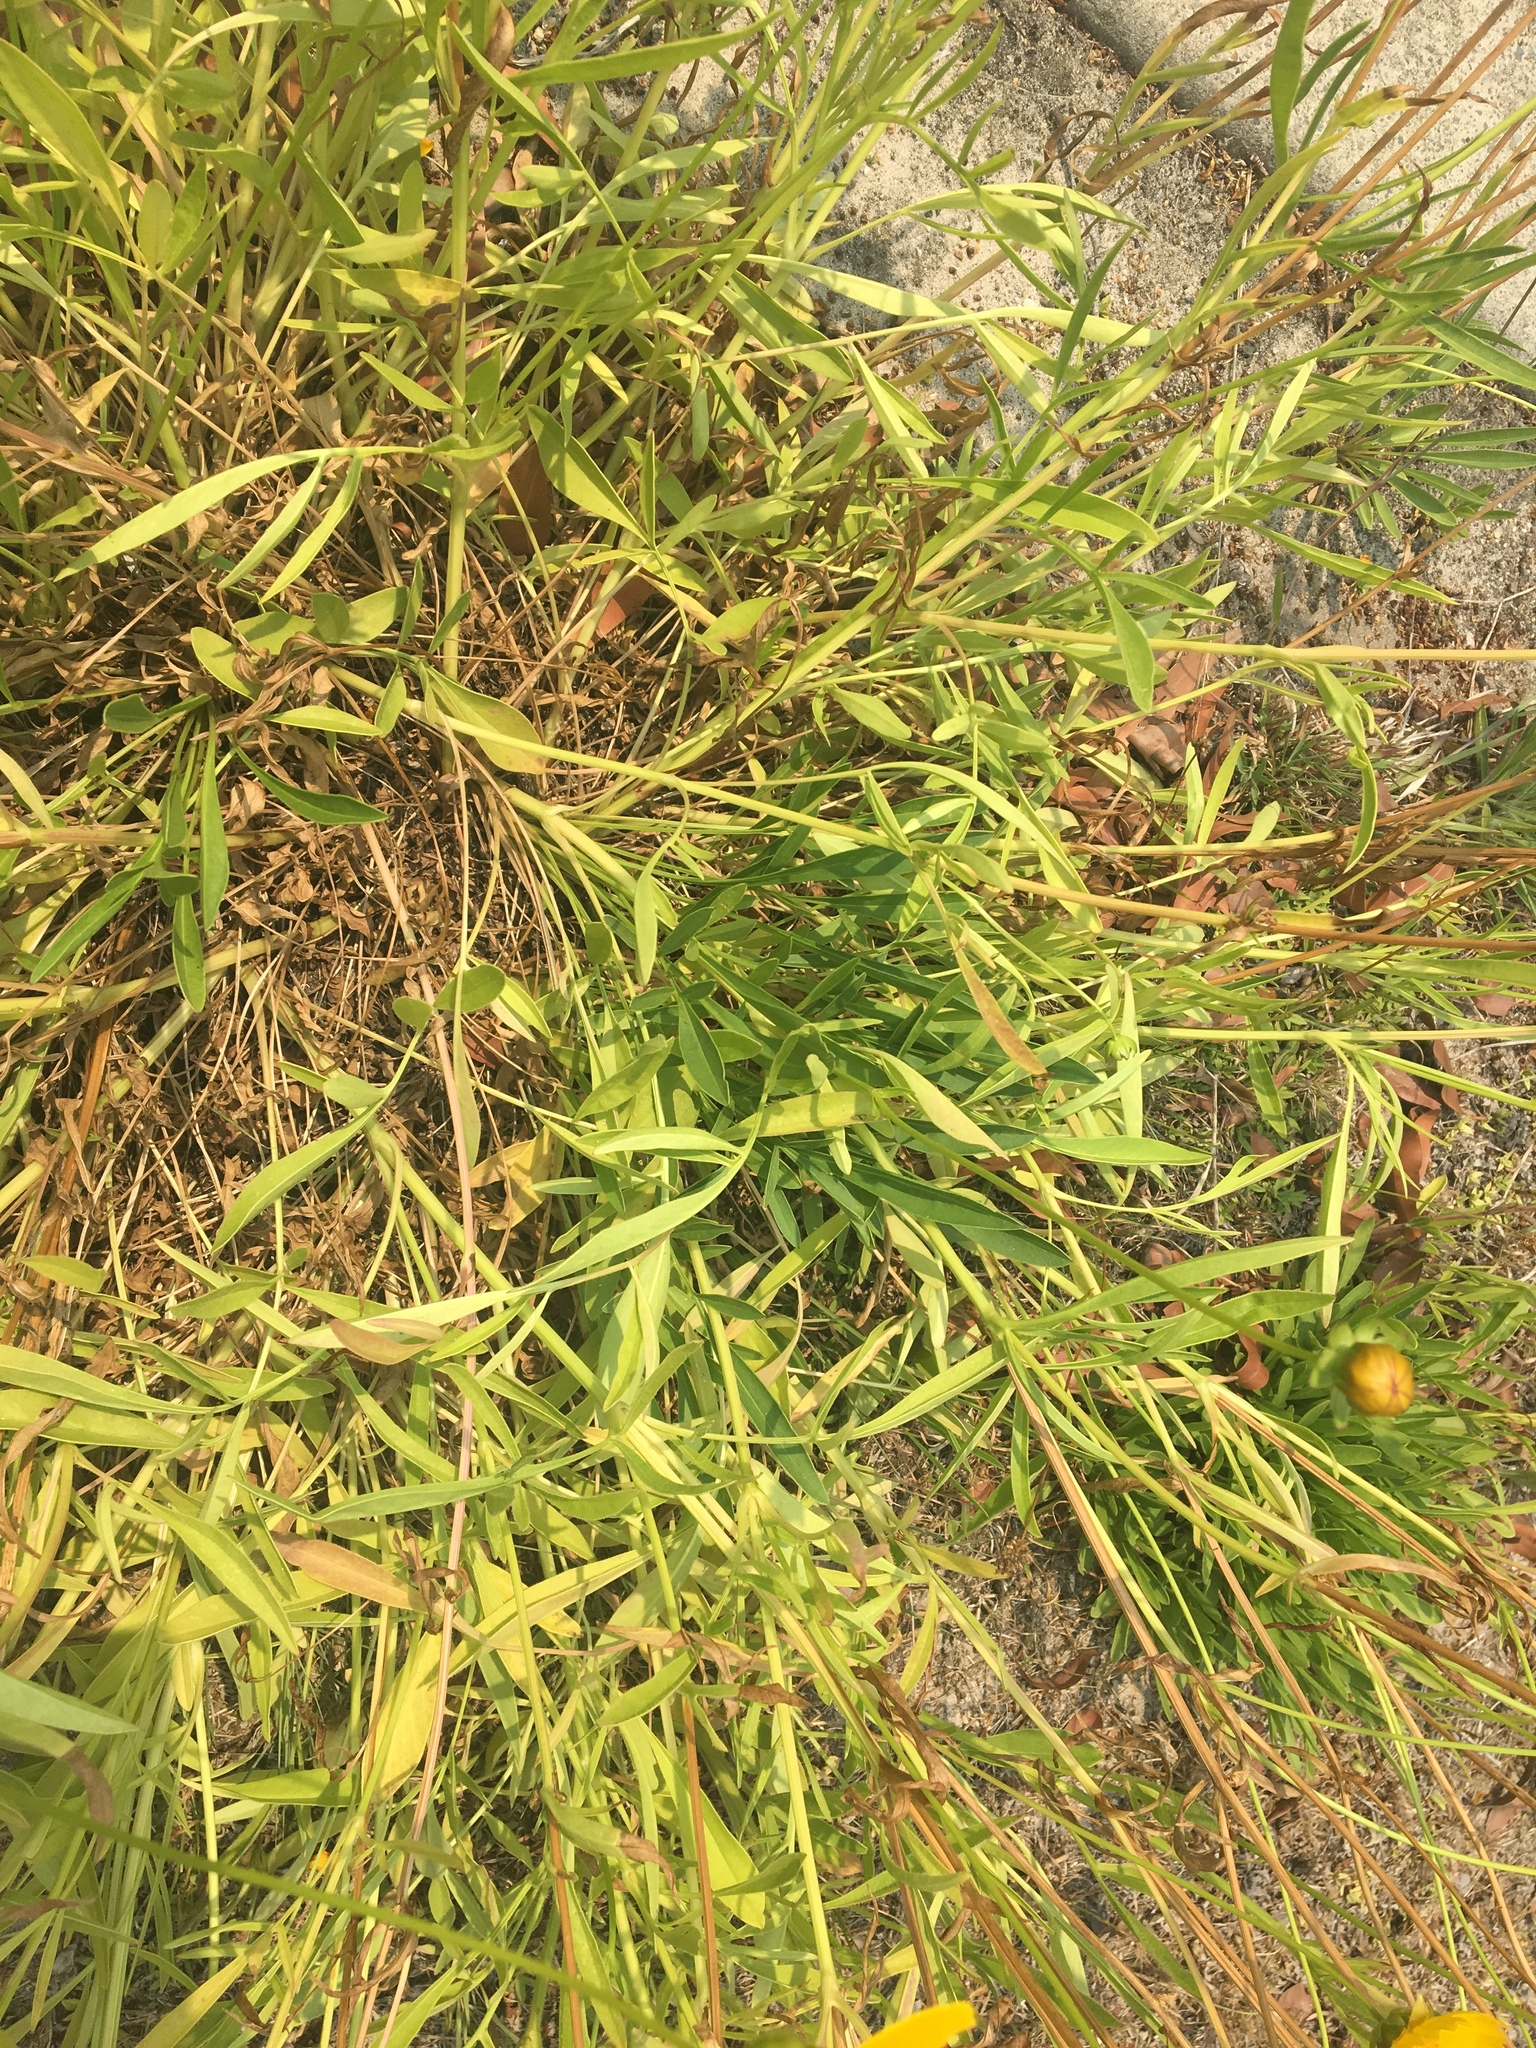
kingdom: Plantae
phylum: Tracheophyta
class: Magnoliopsida
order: Asterales
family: Asteraceae
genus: Coreopsis
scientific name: Coreopsis lanceolata
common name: Garden coreopsis
